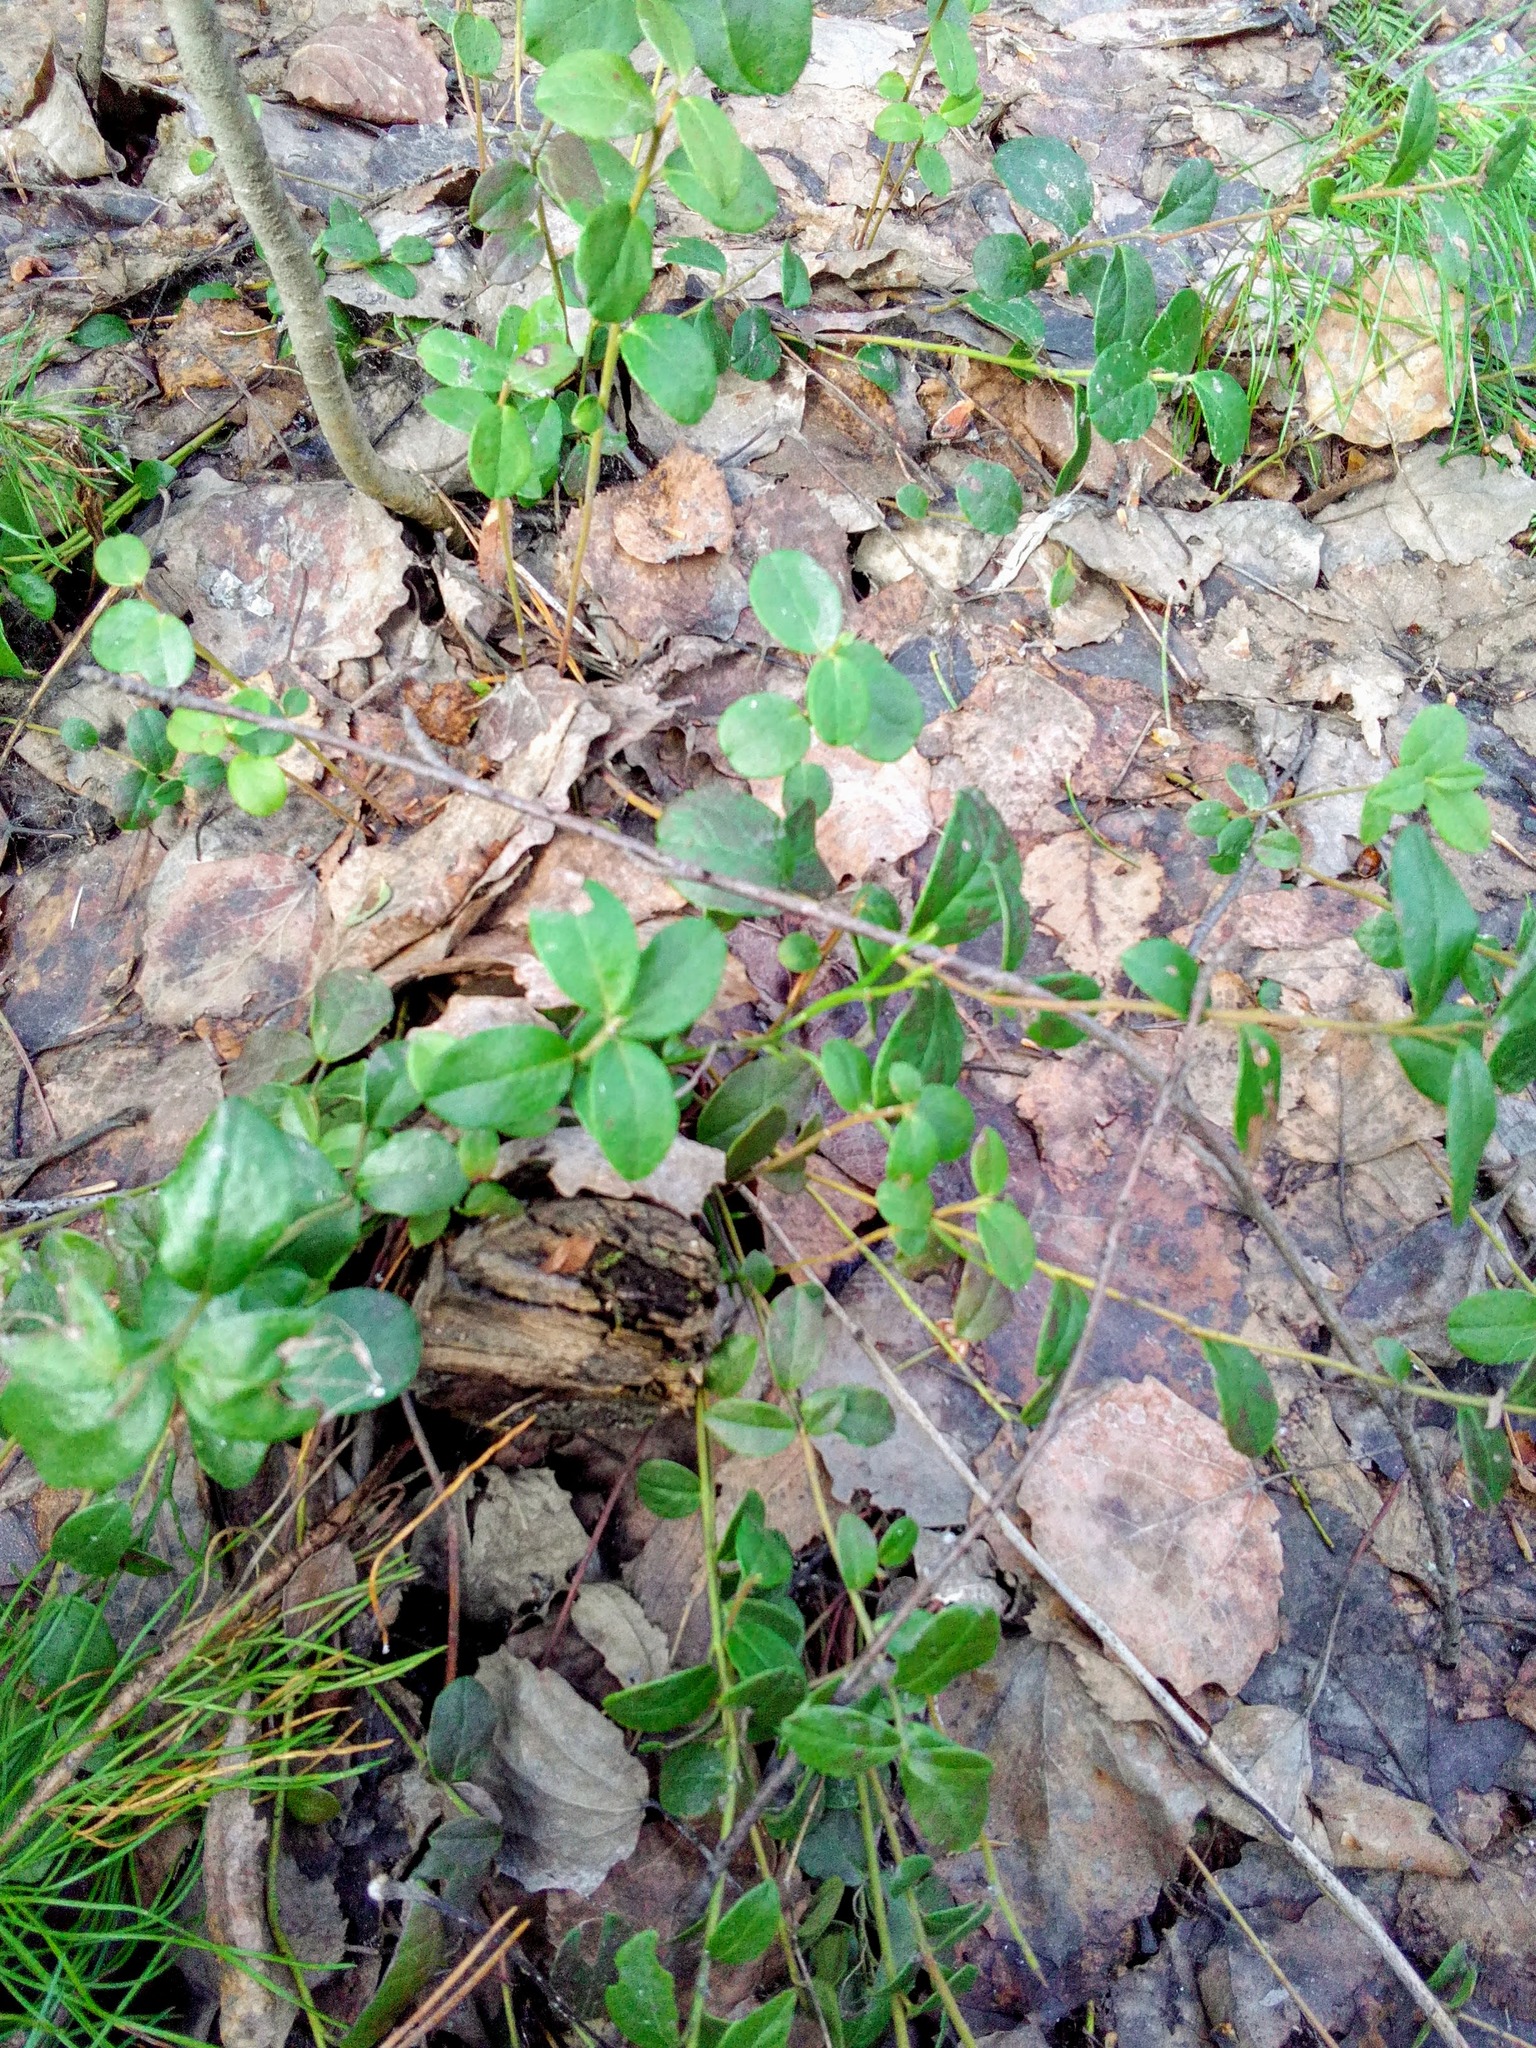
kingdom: Plantae
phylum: Tracheophyta
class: Magnoliopsida
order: Ericales
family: Ericaceae
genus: Vaccinium
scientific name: Vaccinium vitis-idaea
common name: Cowberry
